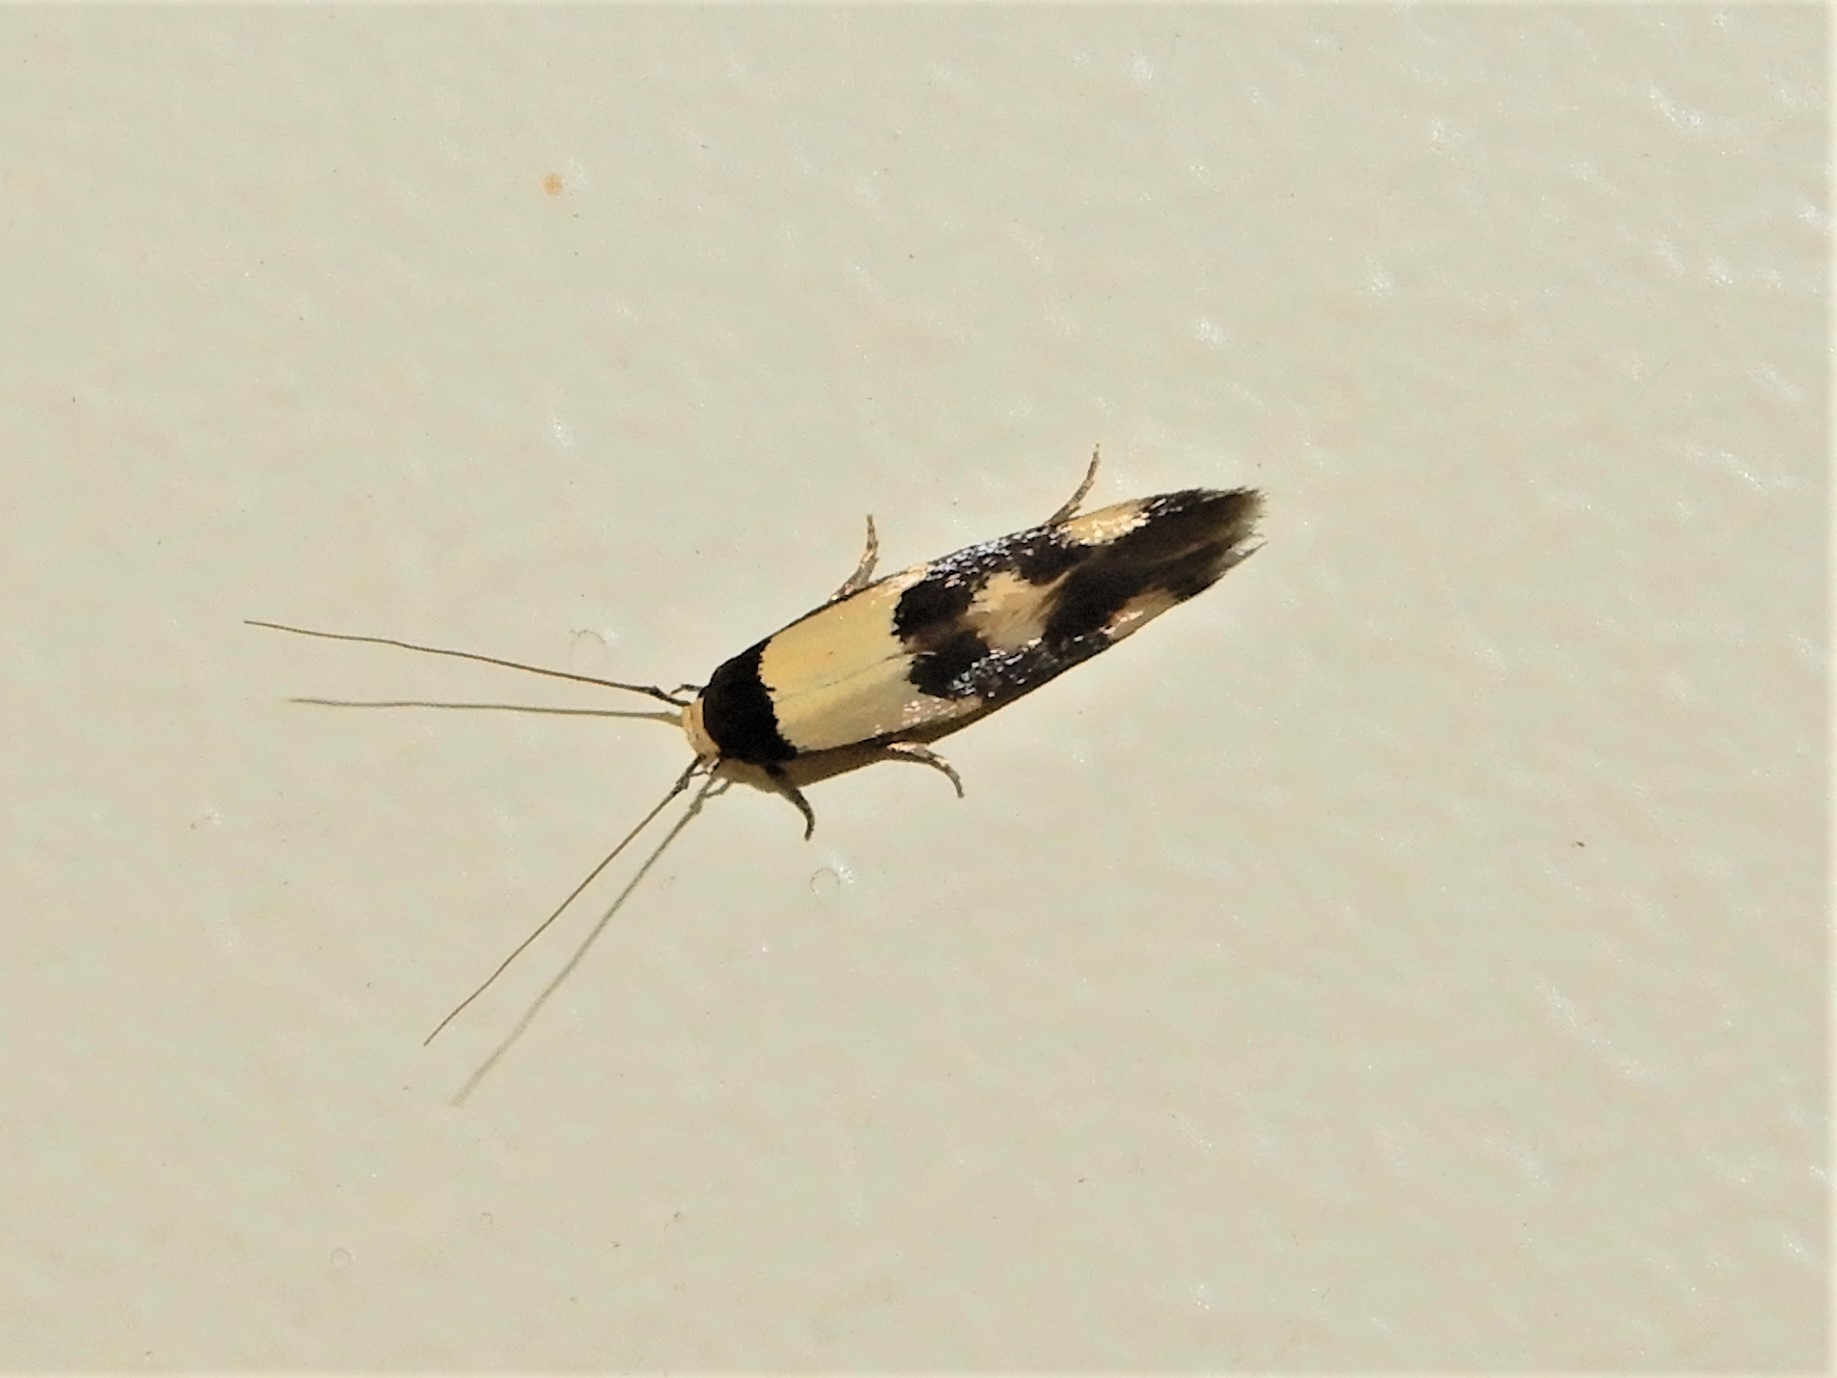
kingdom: Animalia
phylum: Arthropoda
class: Insecta
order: Lepidoptera
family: Tineidae
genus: Opogona
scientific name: Opogona comptella
